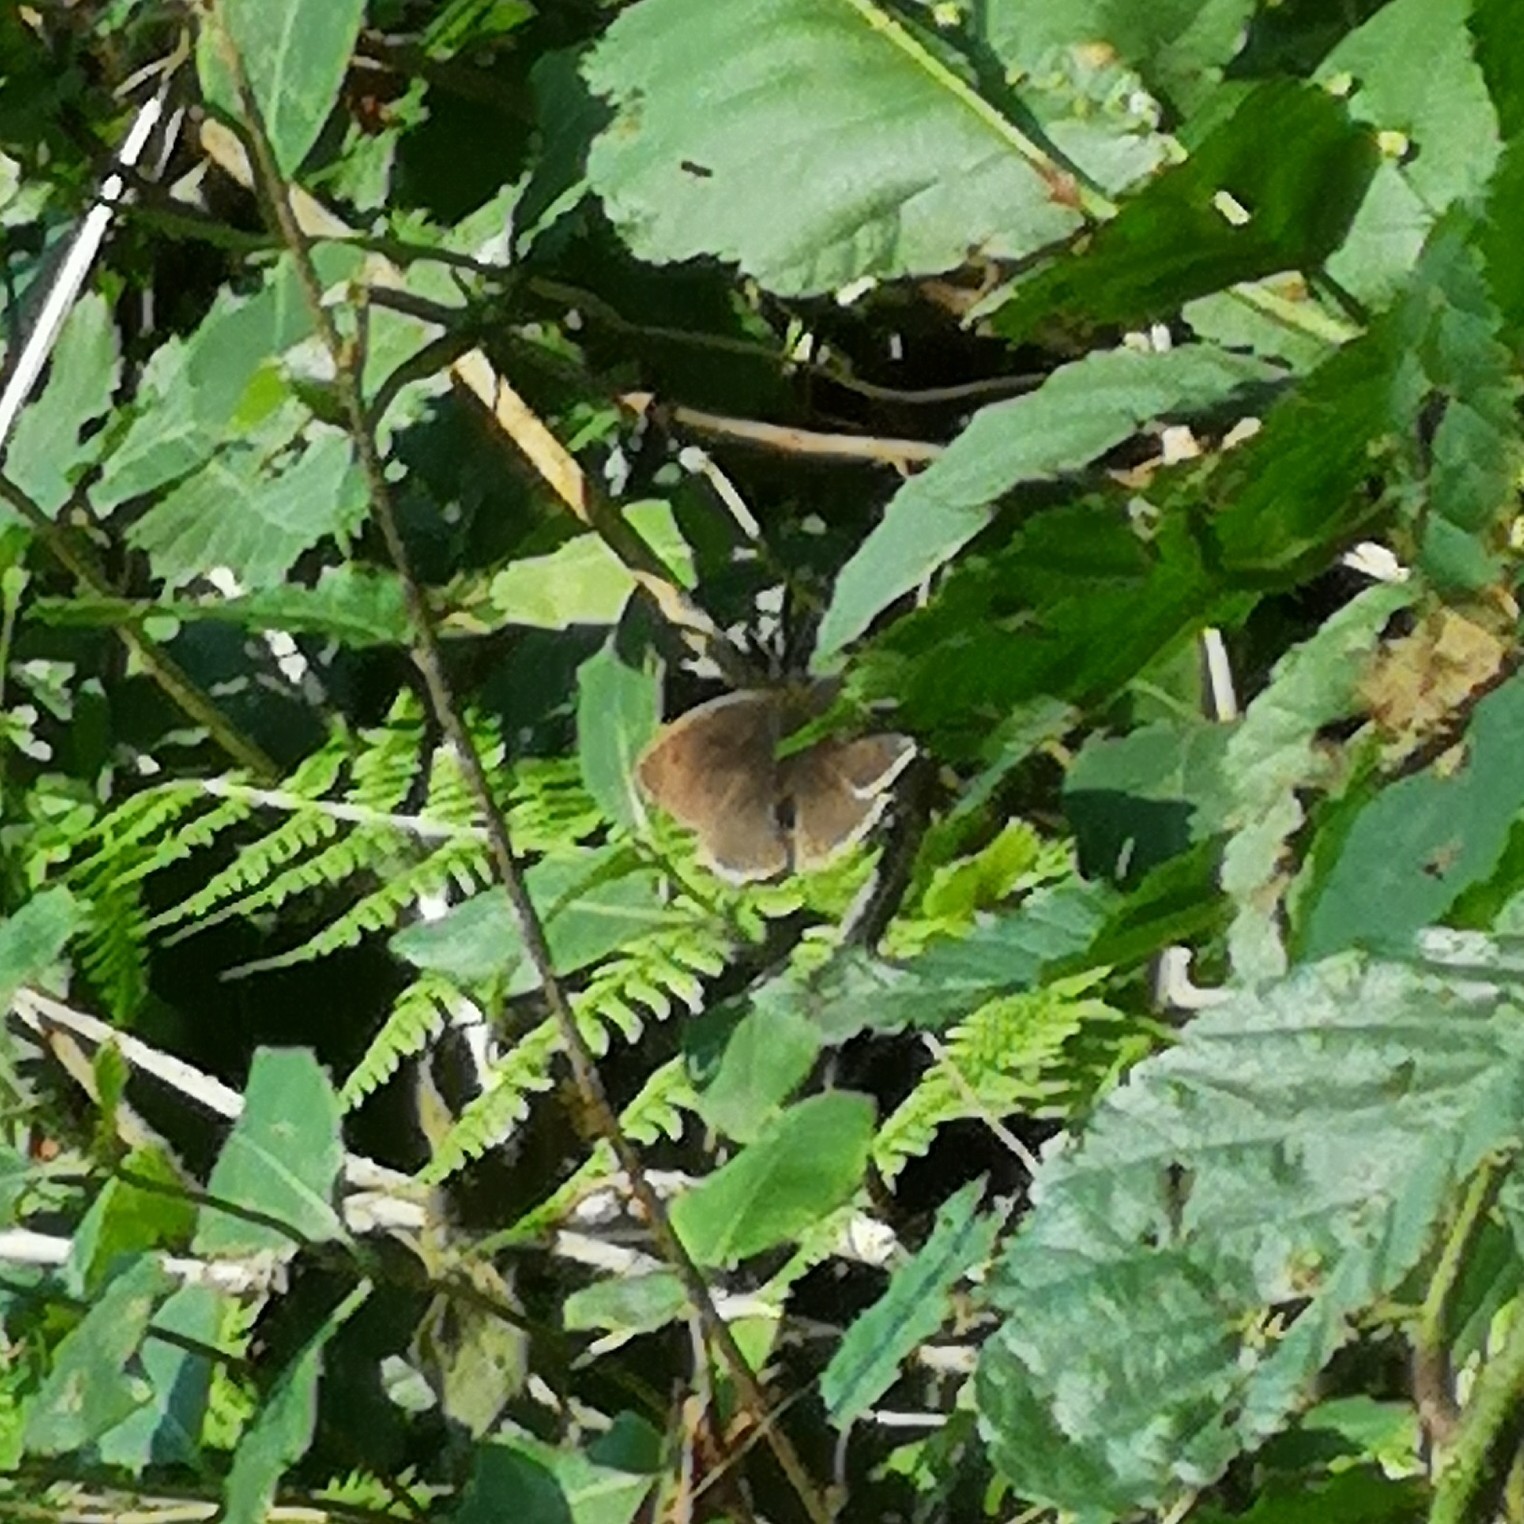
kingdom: Animalia
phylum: Arthropoda
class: Insecta
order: Lepidoptera
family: Nymphalidae
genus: Maniola
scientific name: Maniola jurtina
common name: Meadow brown
